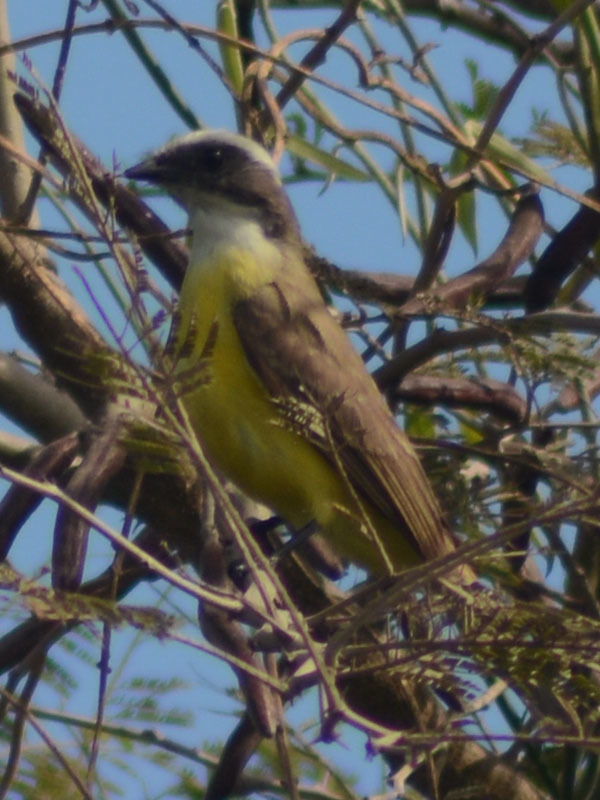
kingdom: Animalia
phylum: Chordata
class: Aves
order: Passeriformes
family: Tyrannidae
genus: Myiozetetes
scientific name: Myiozetetes similis
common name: Social flycatcher
